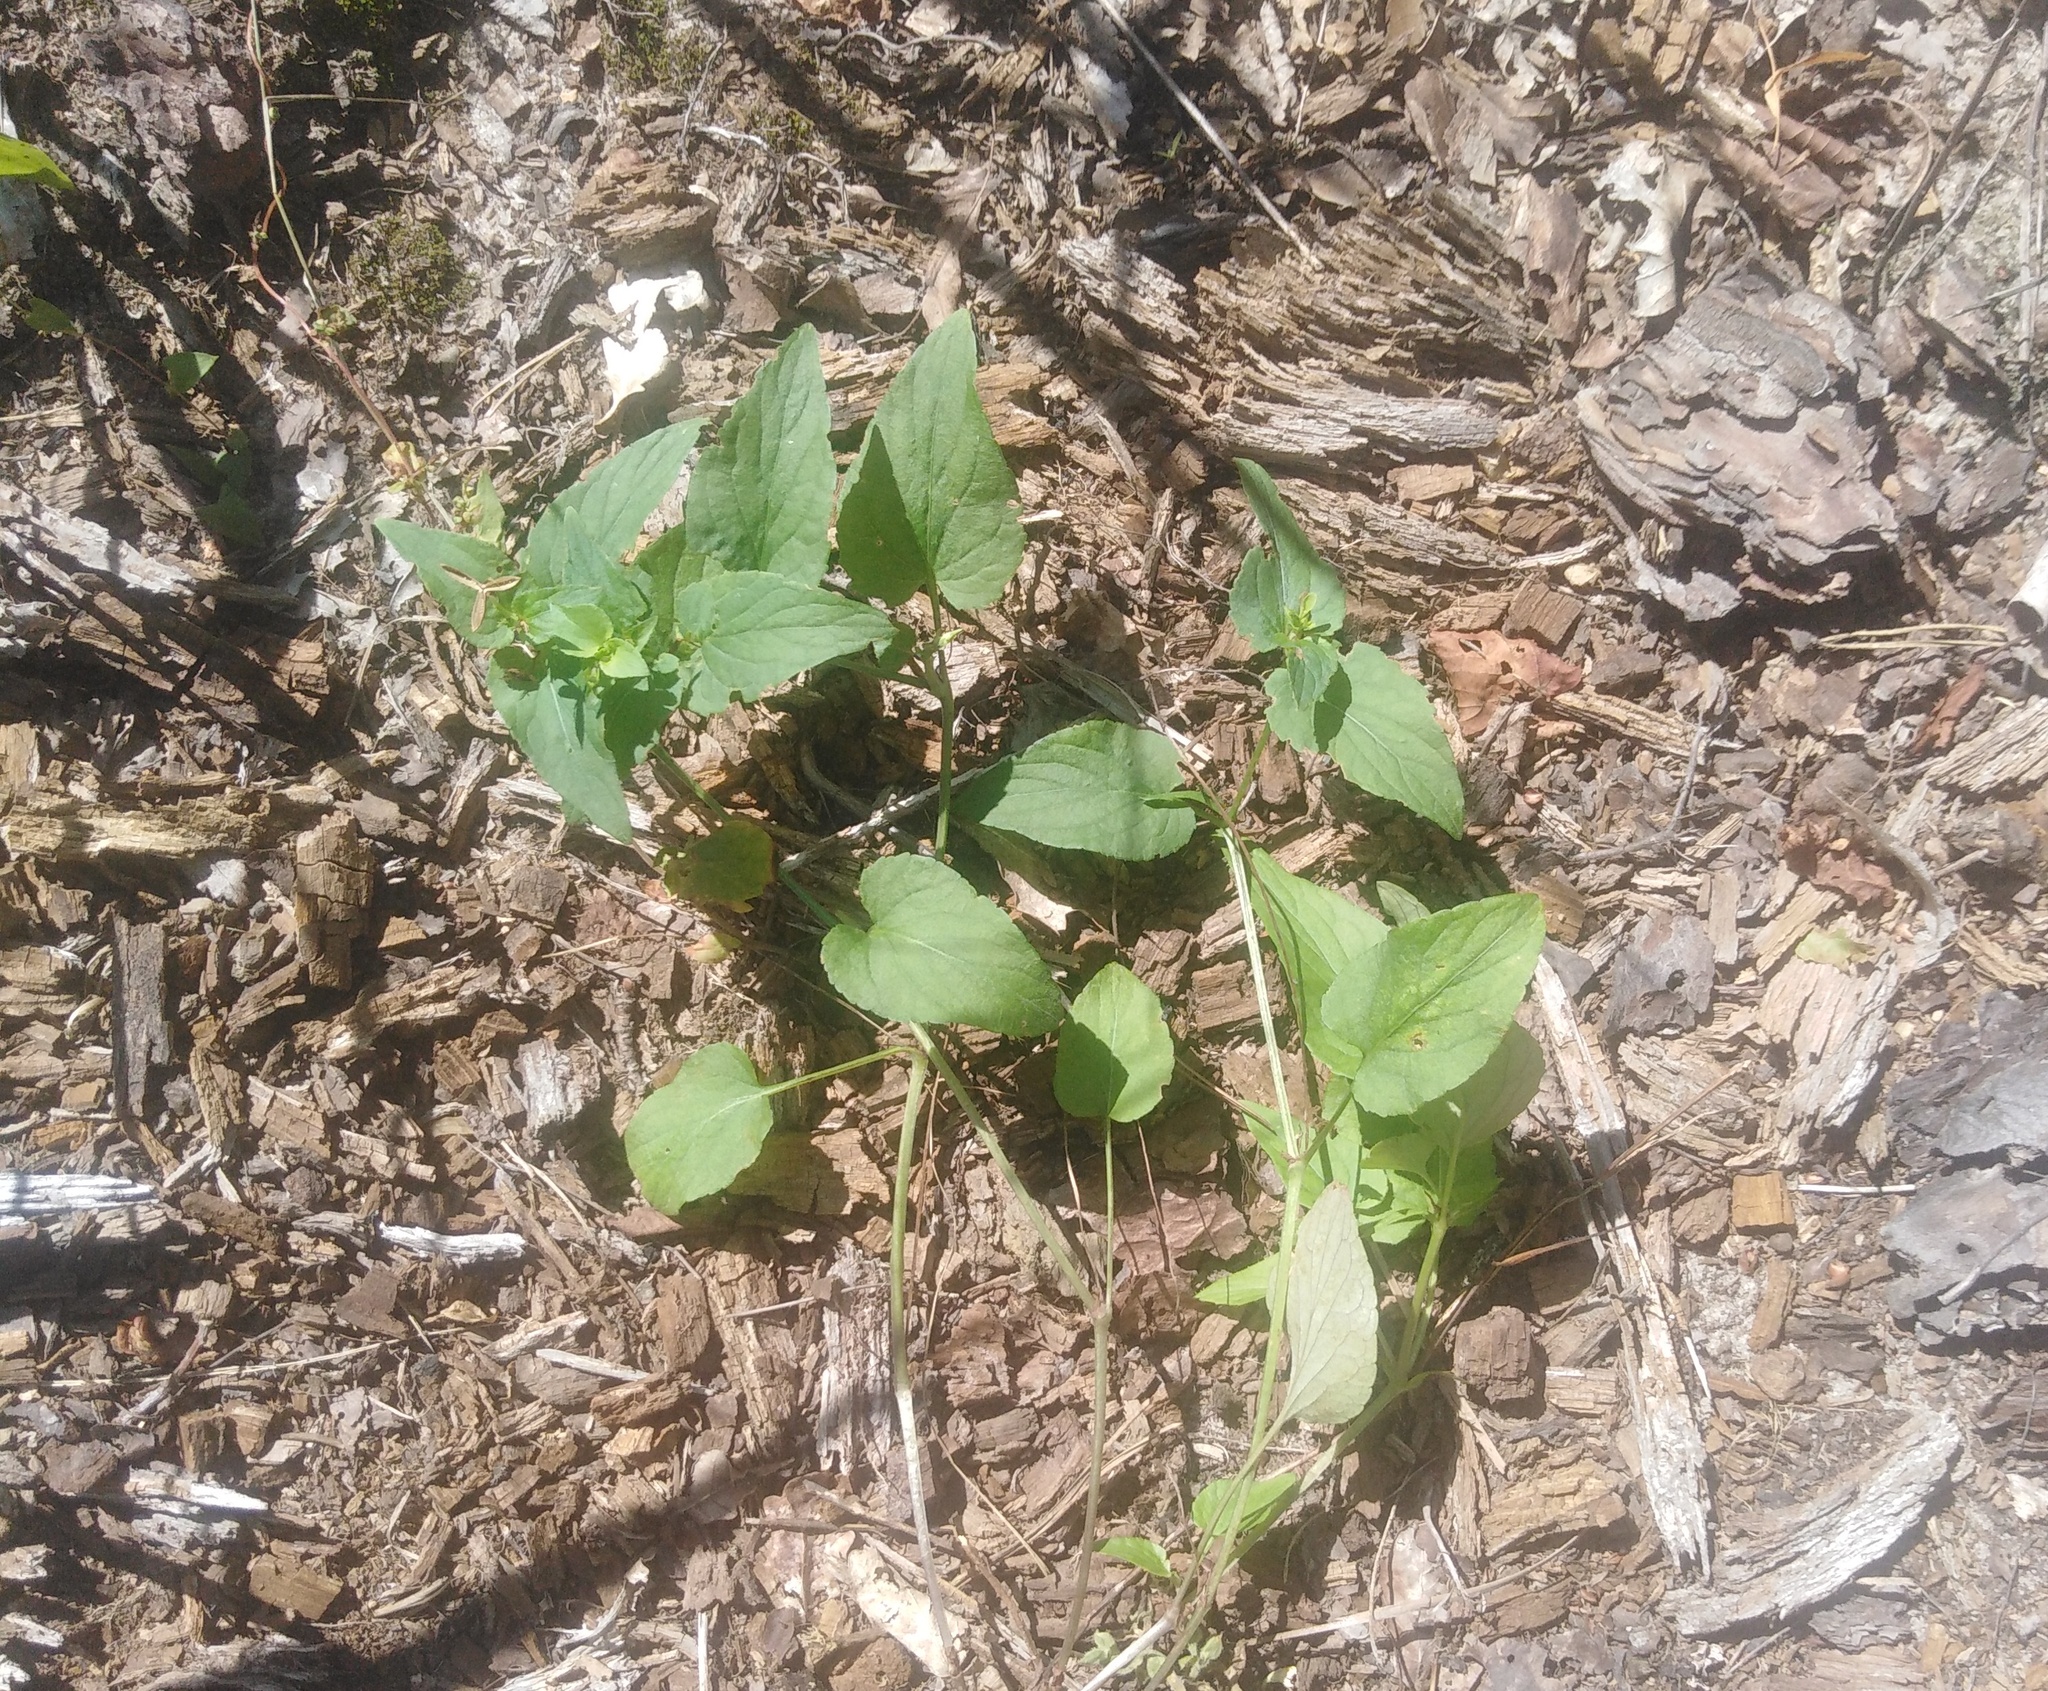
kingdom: Plantae
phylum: Tracheophyta
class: Magnoliopsida
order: Malpighiales
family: Violaceae
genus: Viola
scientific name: Viola
